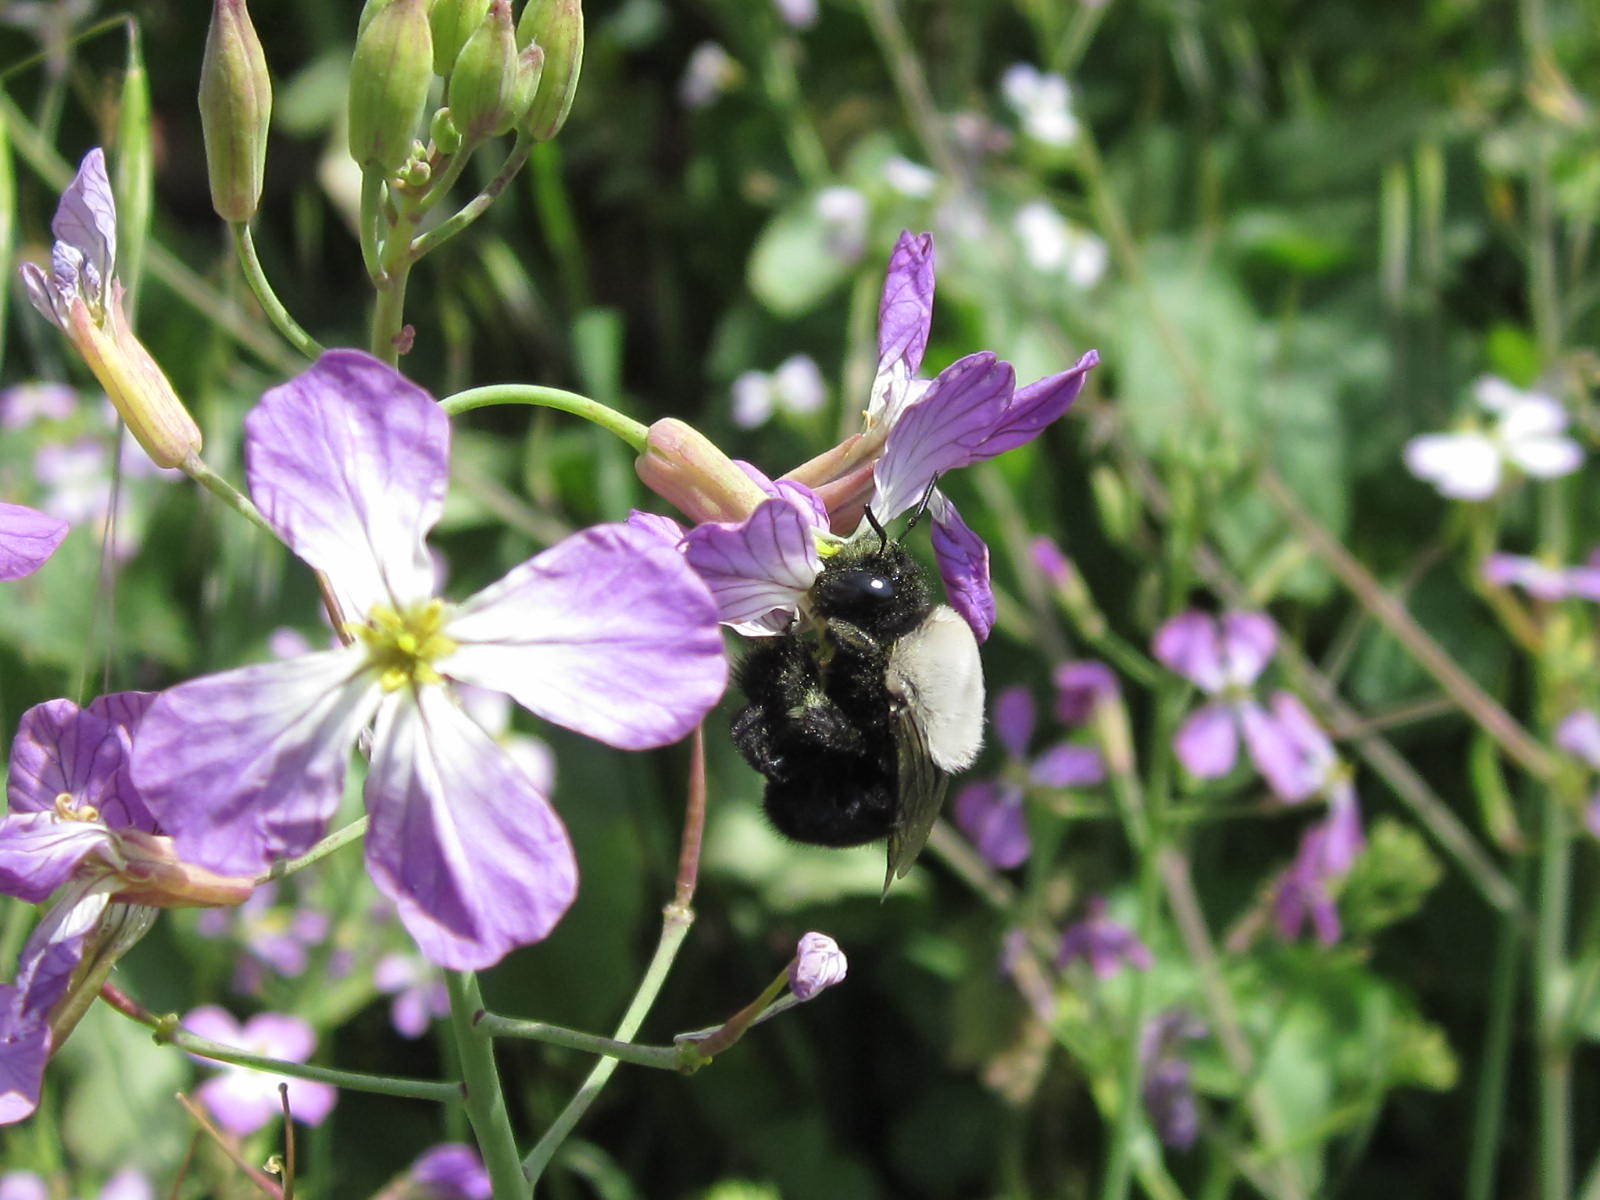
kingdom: Animalia
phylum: Arthropoda
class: Insecta
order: Hymenoptera
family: Apidae
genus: Centris
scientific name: Centris cineraria
